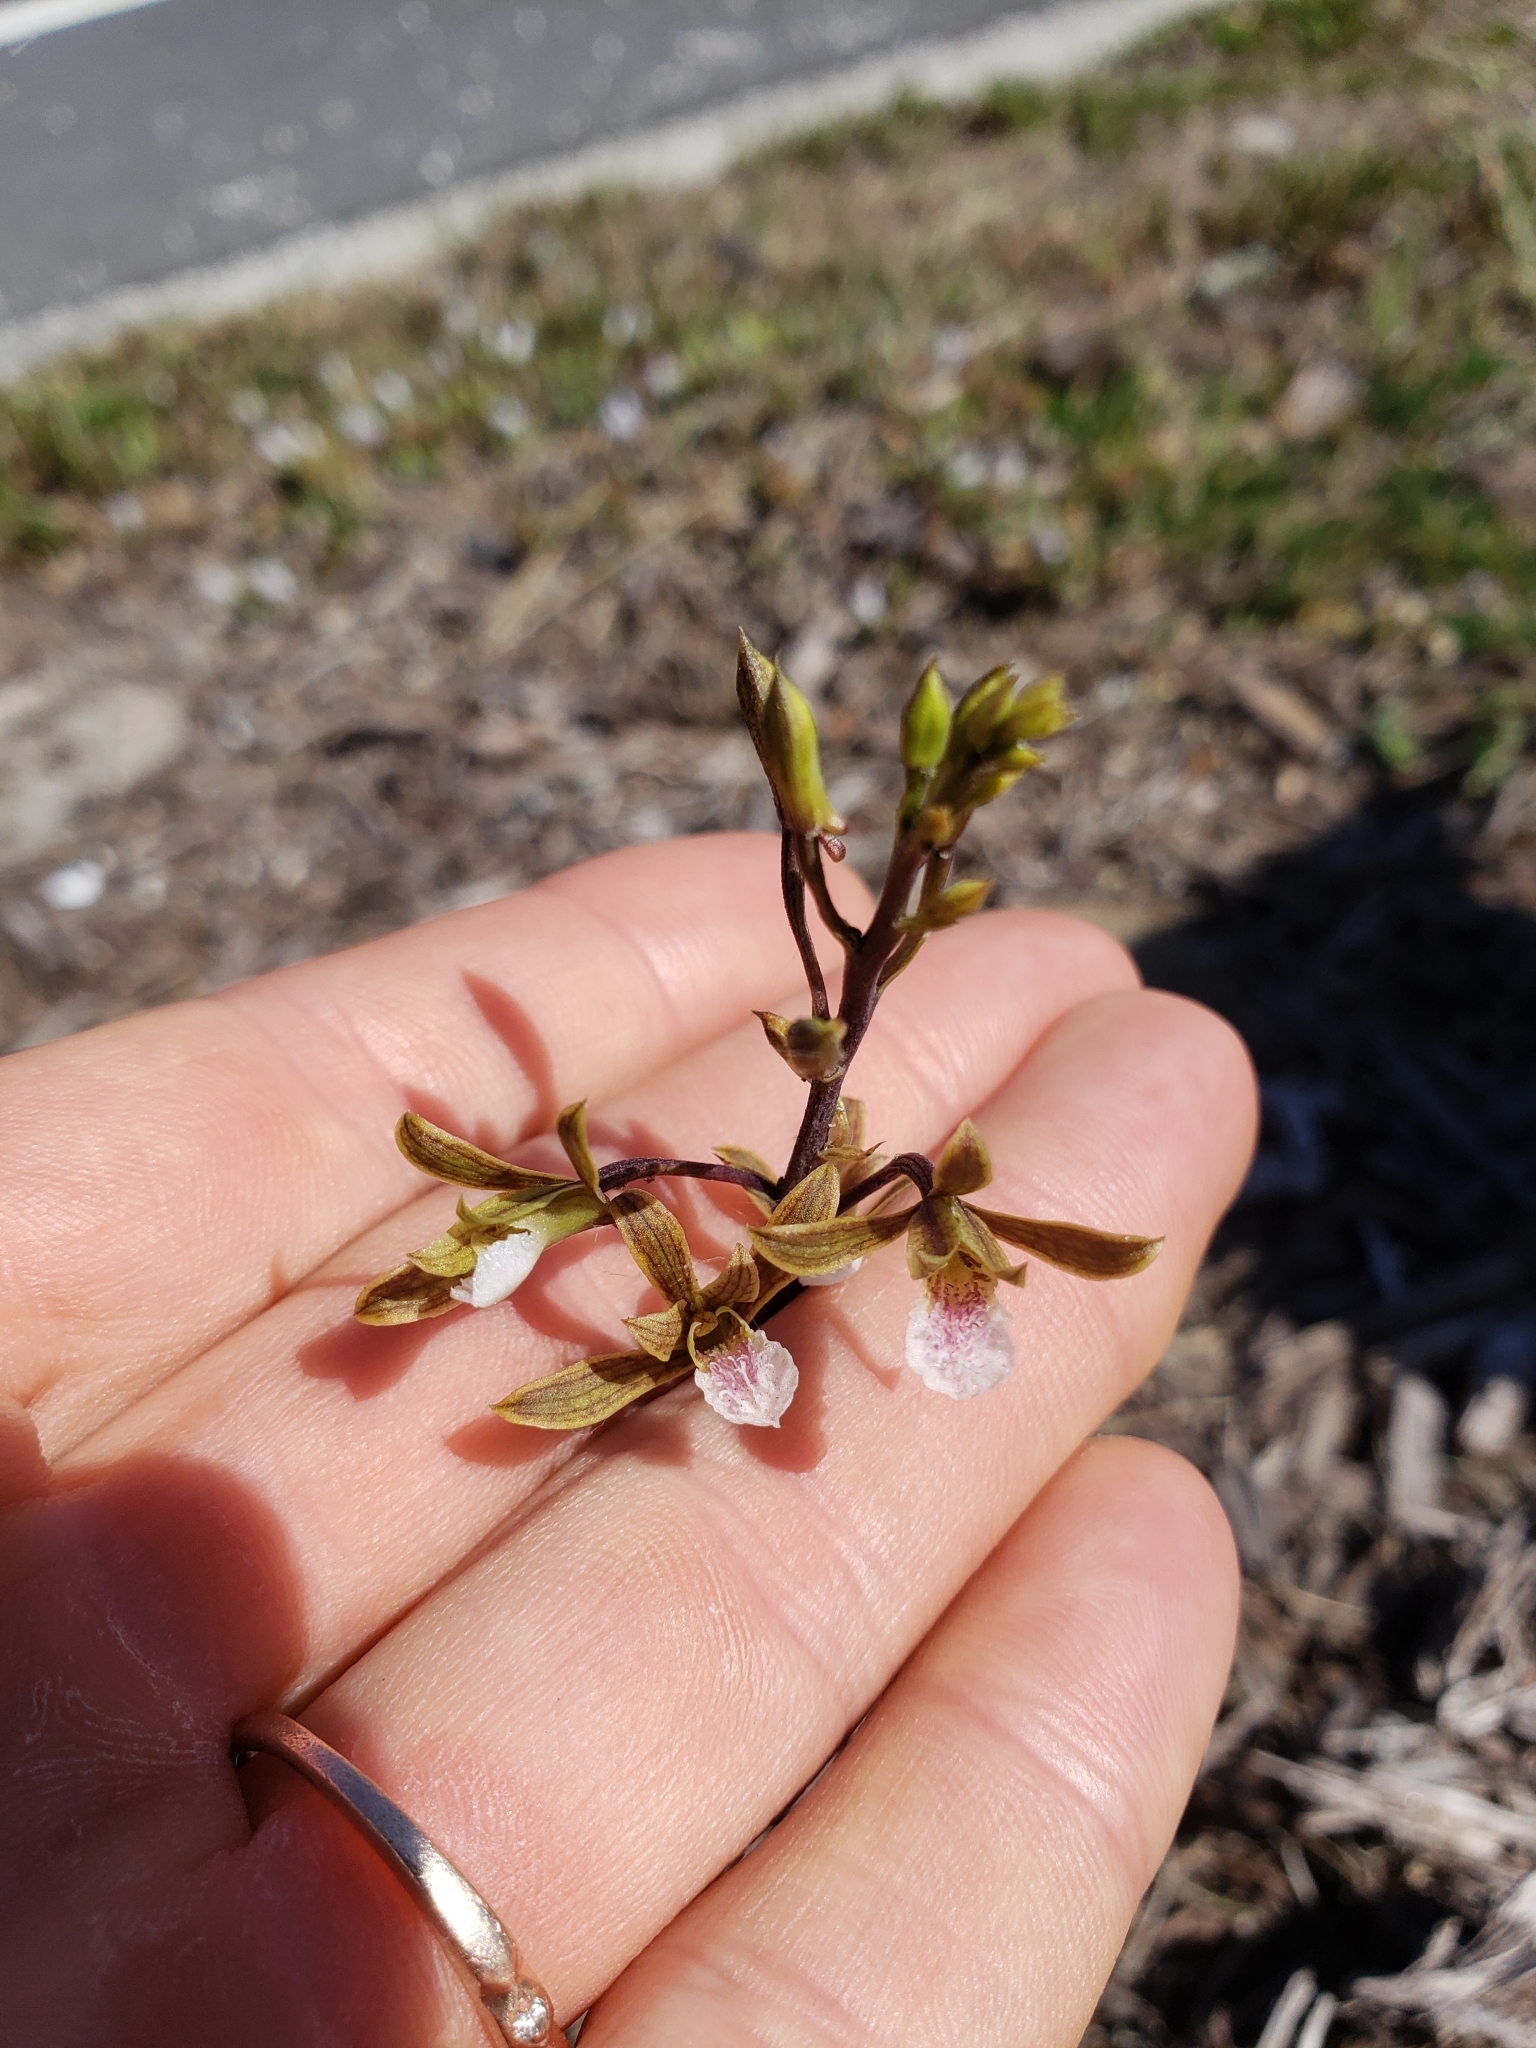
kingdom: Plantae
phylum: Tracheophyta
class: Liliopsida
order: Asparagales
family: Orchidaceae
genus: Eulophia
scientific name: Eulophia graminea
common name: Orchid
